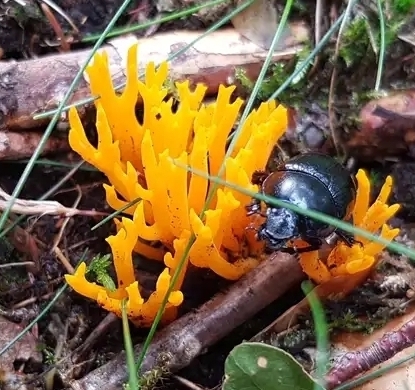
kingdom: Fungi
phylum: Basidiomycota
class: Dacrymycetes
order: Dacrymycetales
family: Dacrymycetaceae
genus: Calocera
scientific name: Calocera viscosa
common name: Yellow stagshorn
